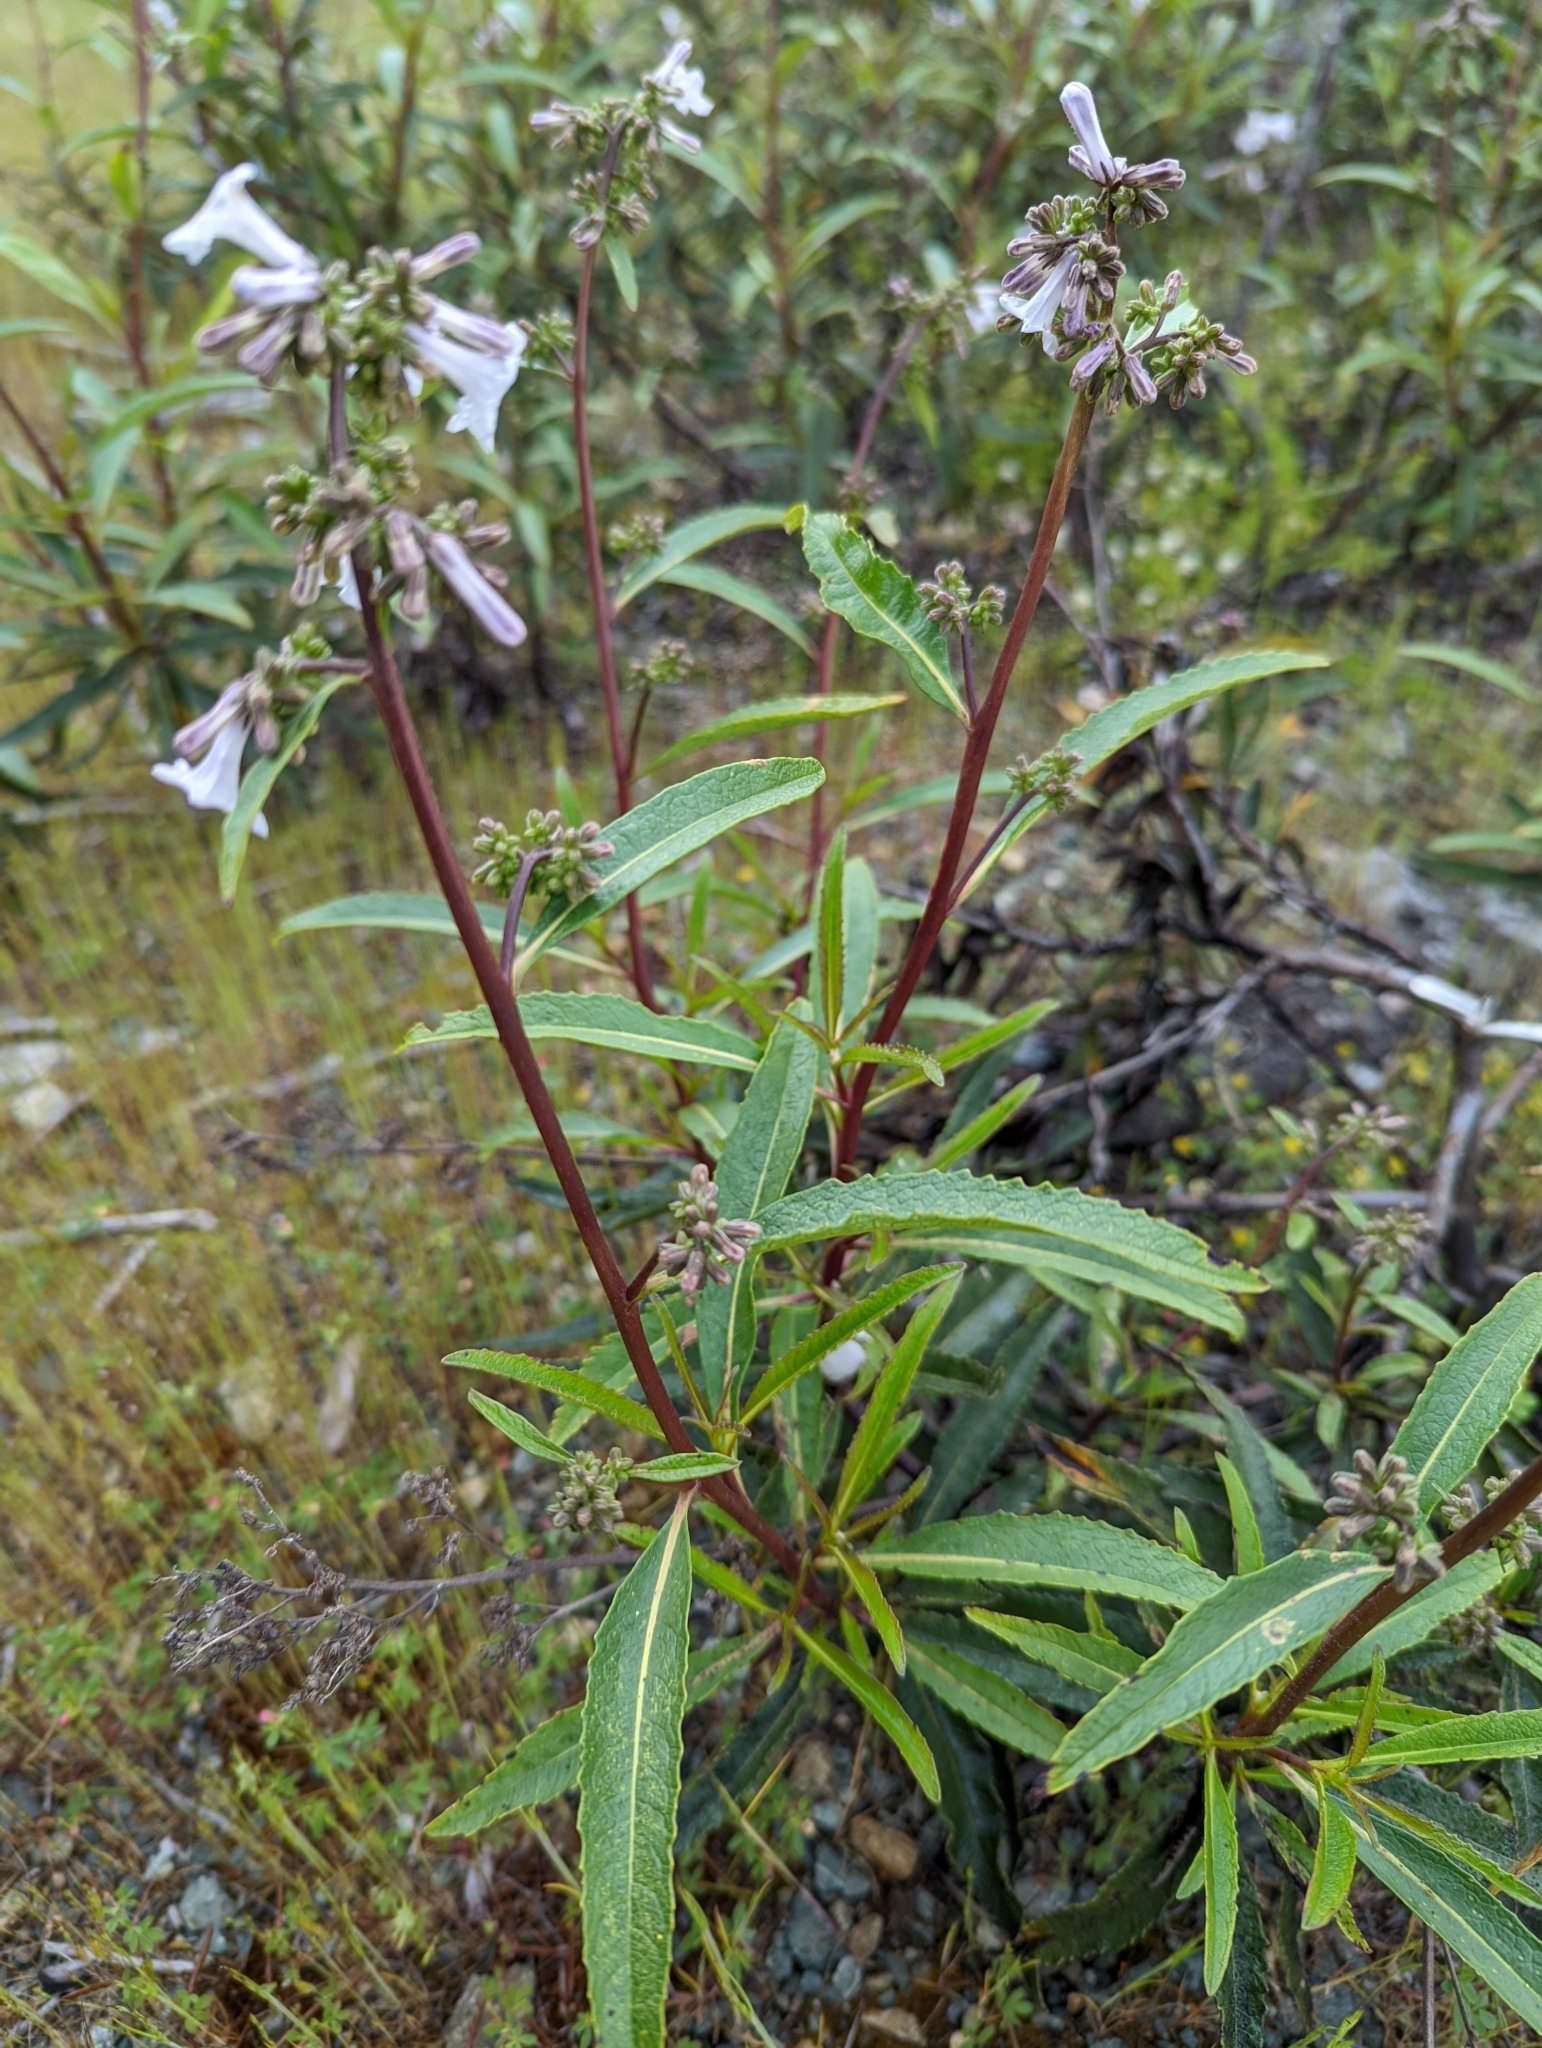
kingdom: Plantae
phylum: Tracheophyta
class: Magnoliopsida
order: Boraginales
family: Namaceae
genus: Eriodictyon
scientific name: Eriodictyon californicum
